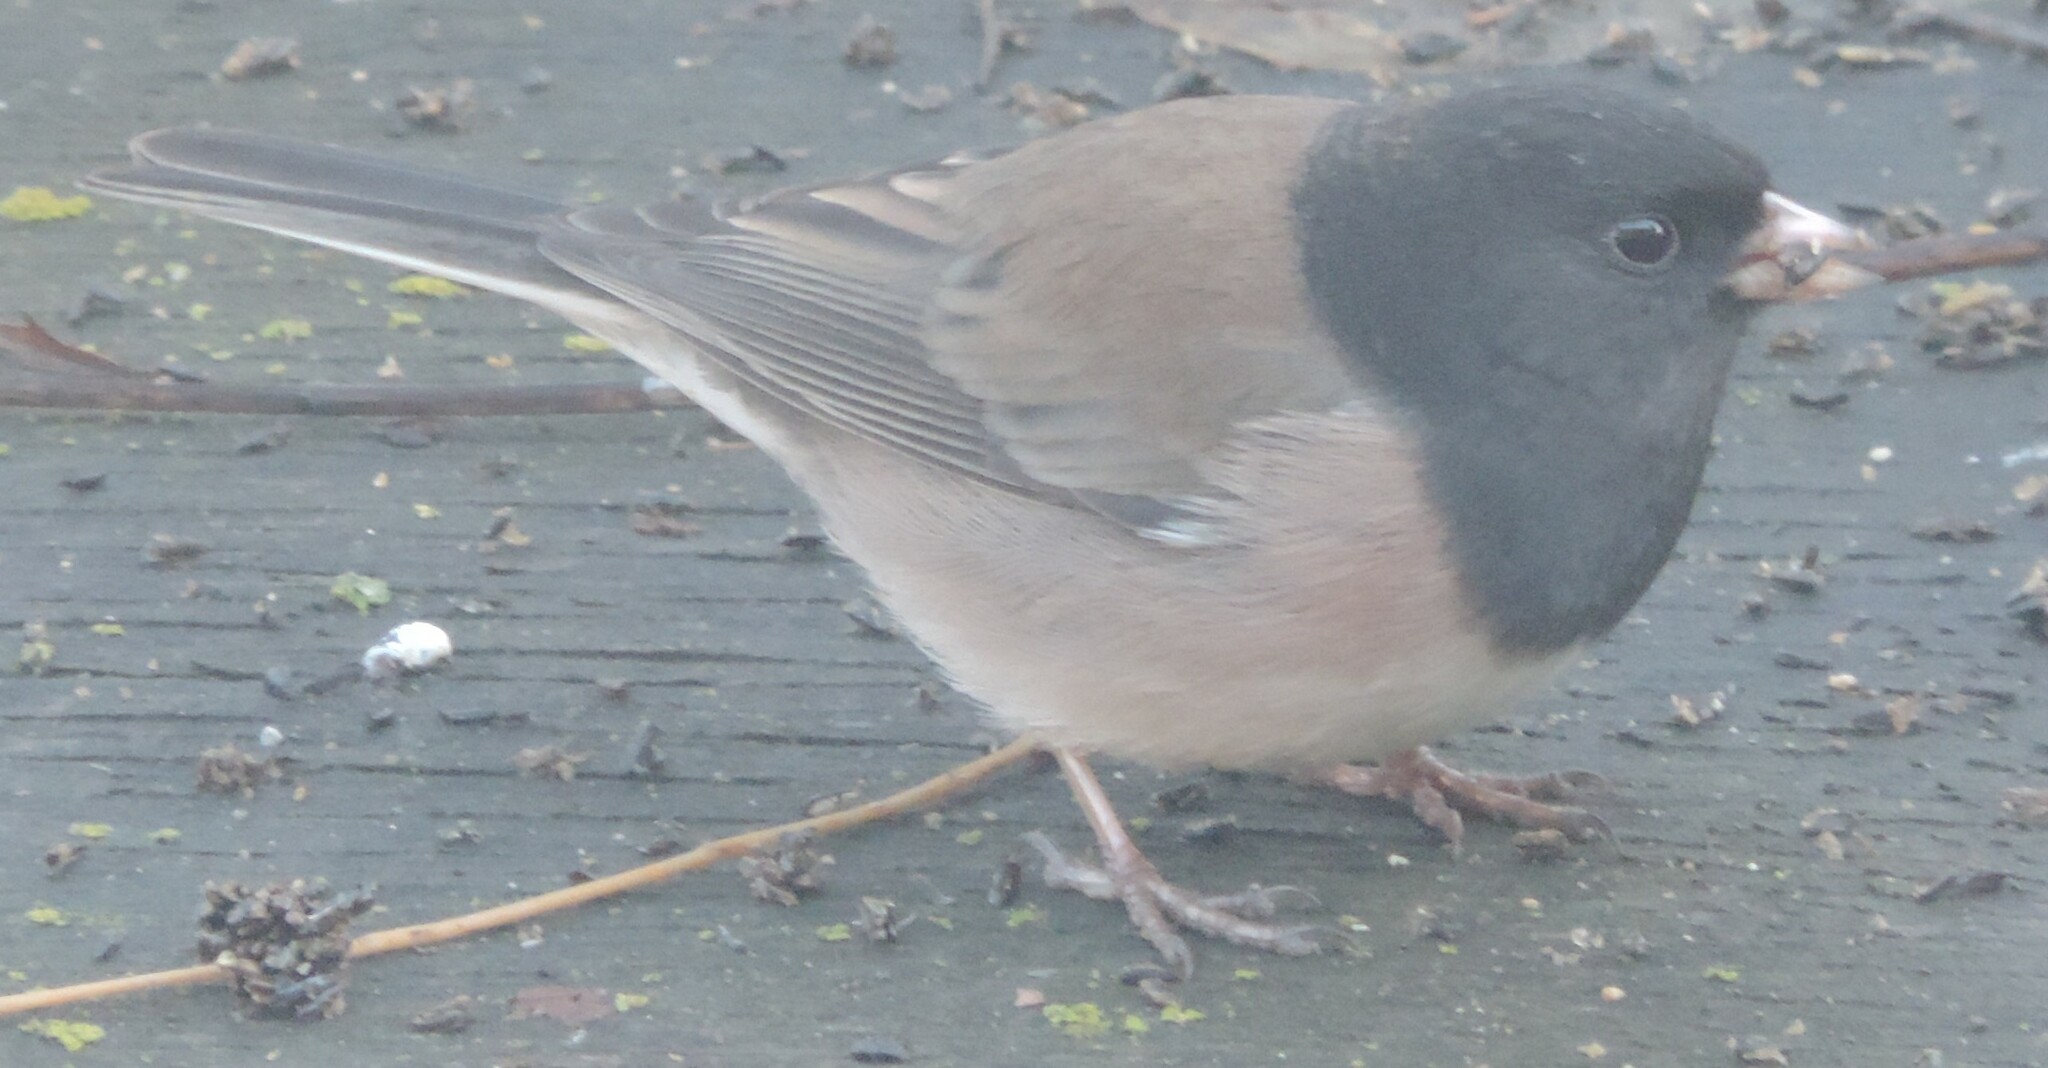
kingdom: Animalia
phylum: Chordata
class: Aves
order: Passeriformes
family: Passerellidae
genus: Junco
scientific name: Junco hyemalis
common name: Dark-eyed junco
